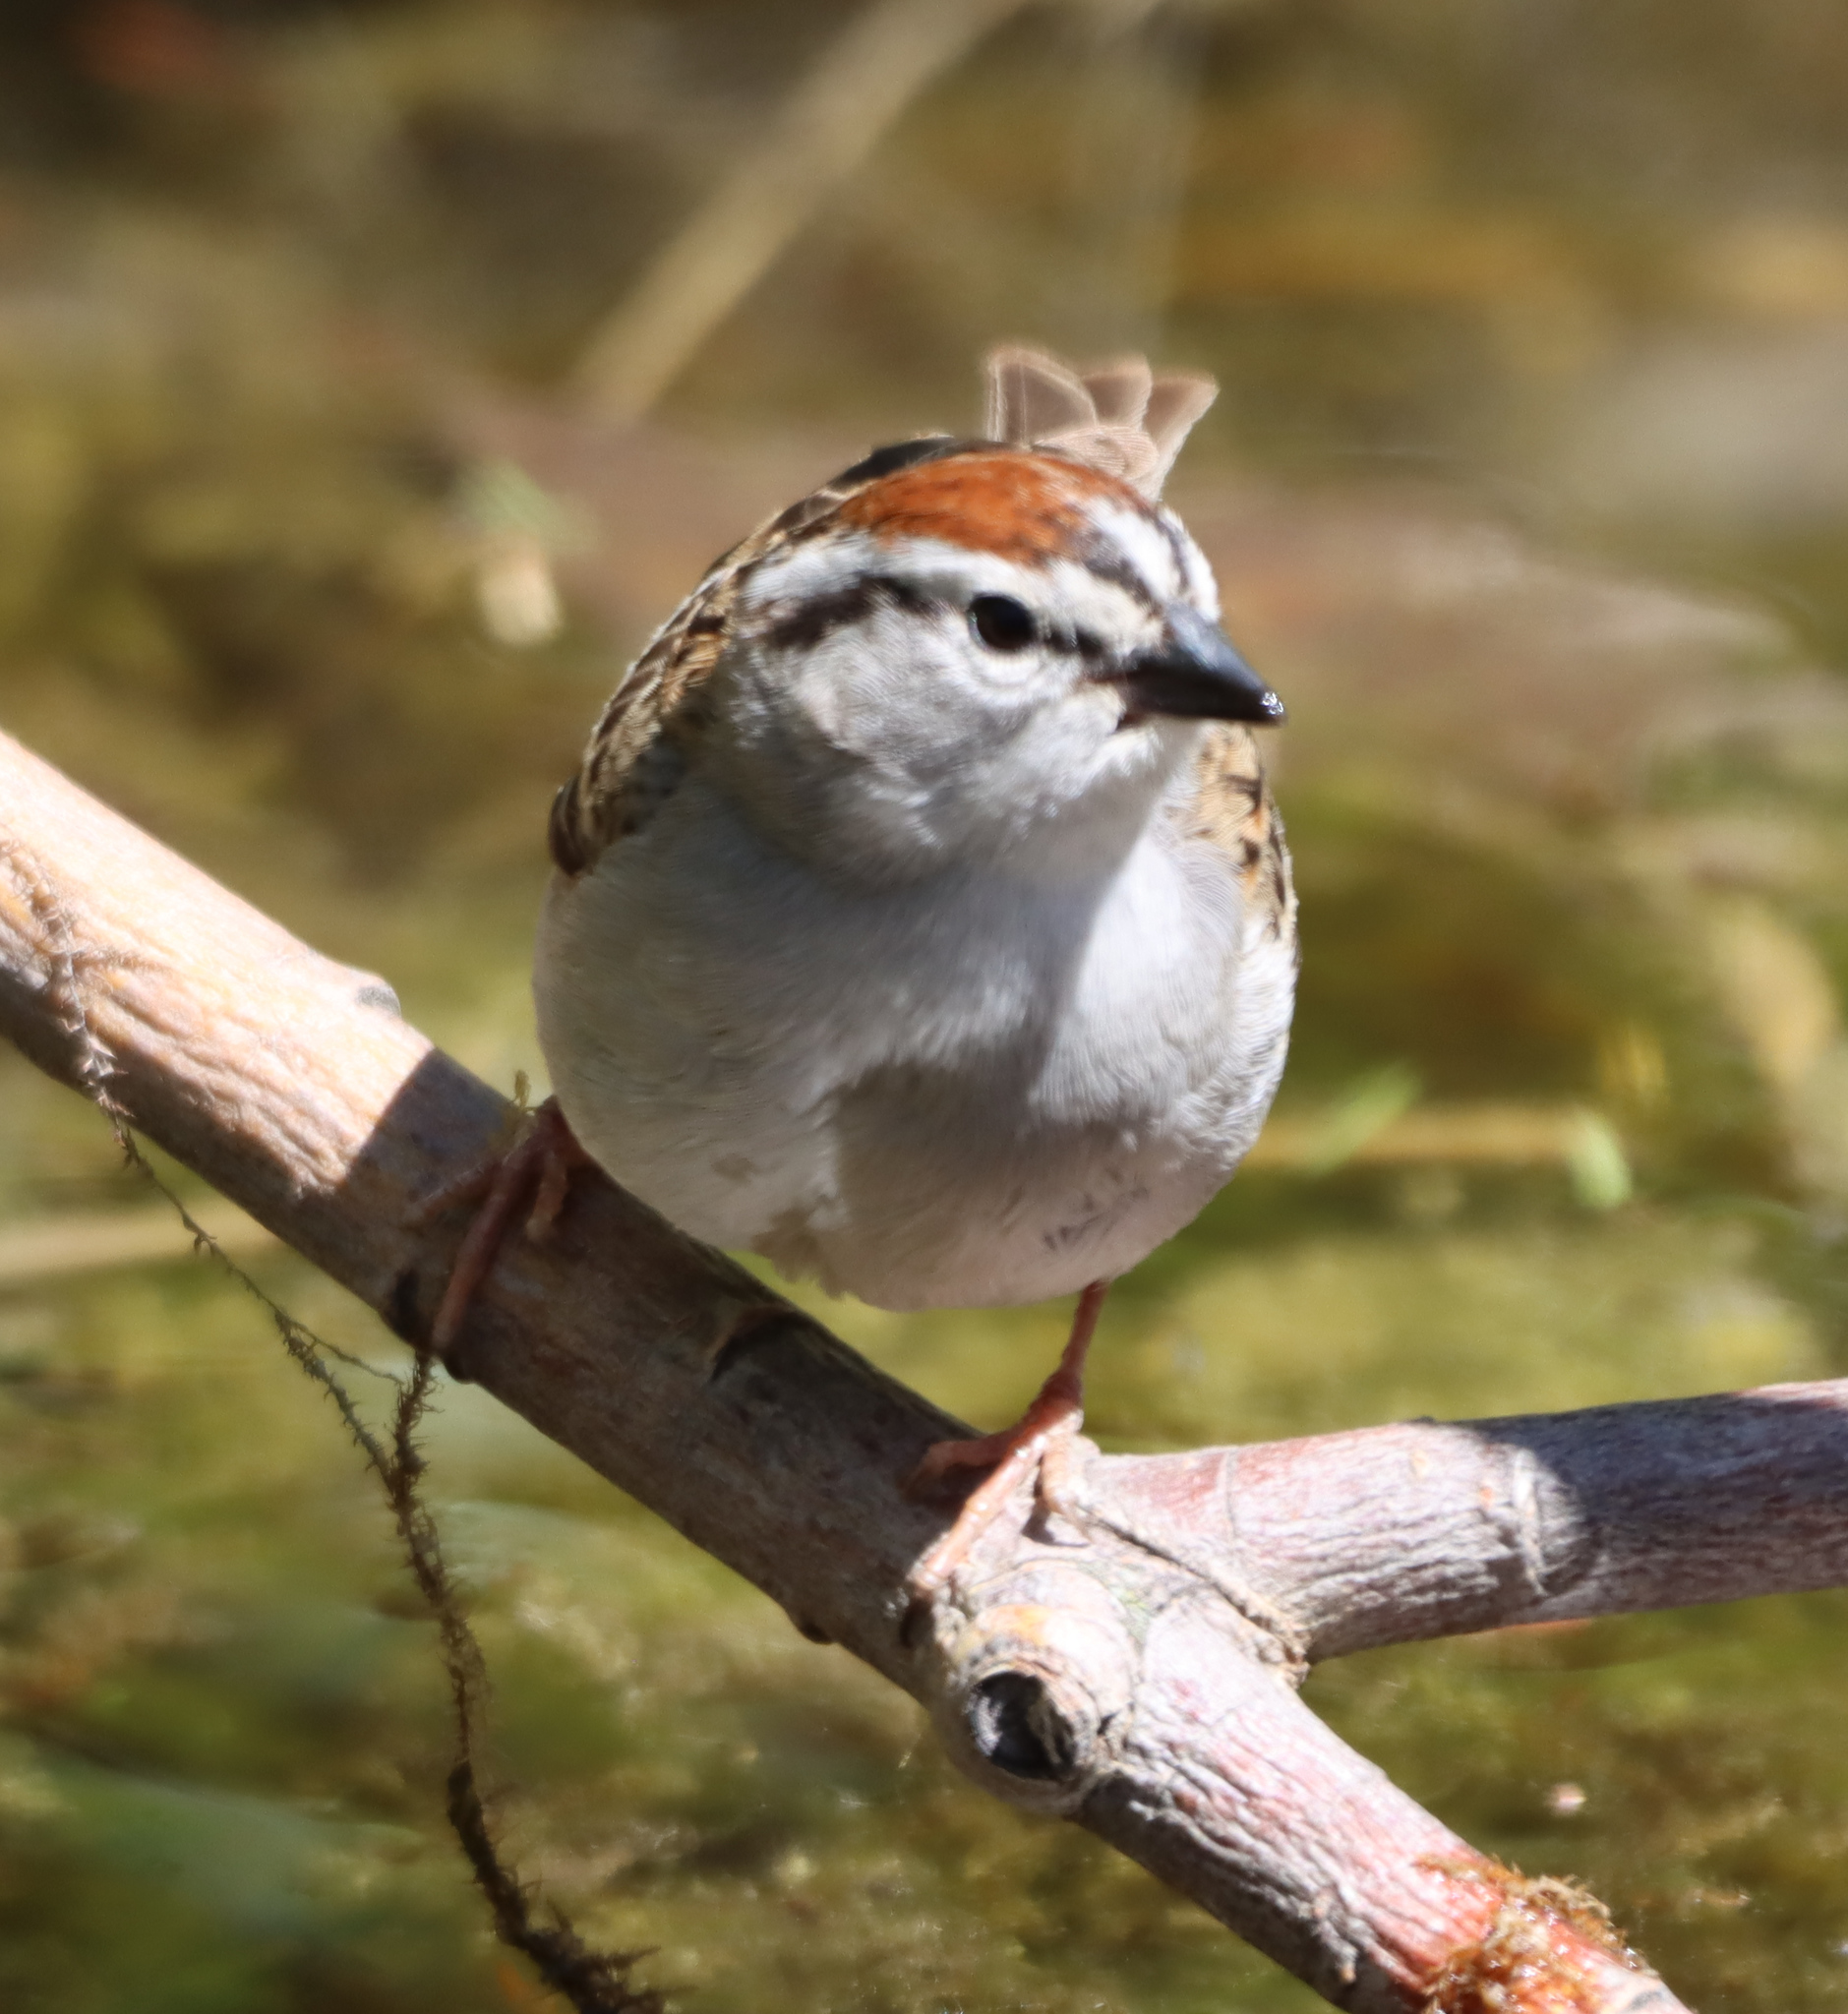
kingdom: Animalia
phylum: Chordata
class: Aves
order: Passeriformes
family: Passerellidae
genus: Spizella
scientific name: Spizella passerina
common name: Chipping sparrow
